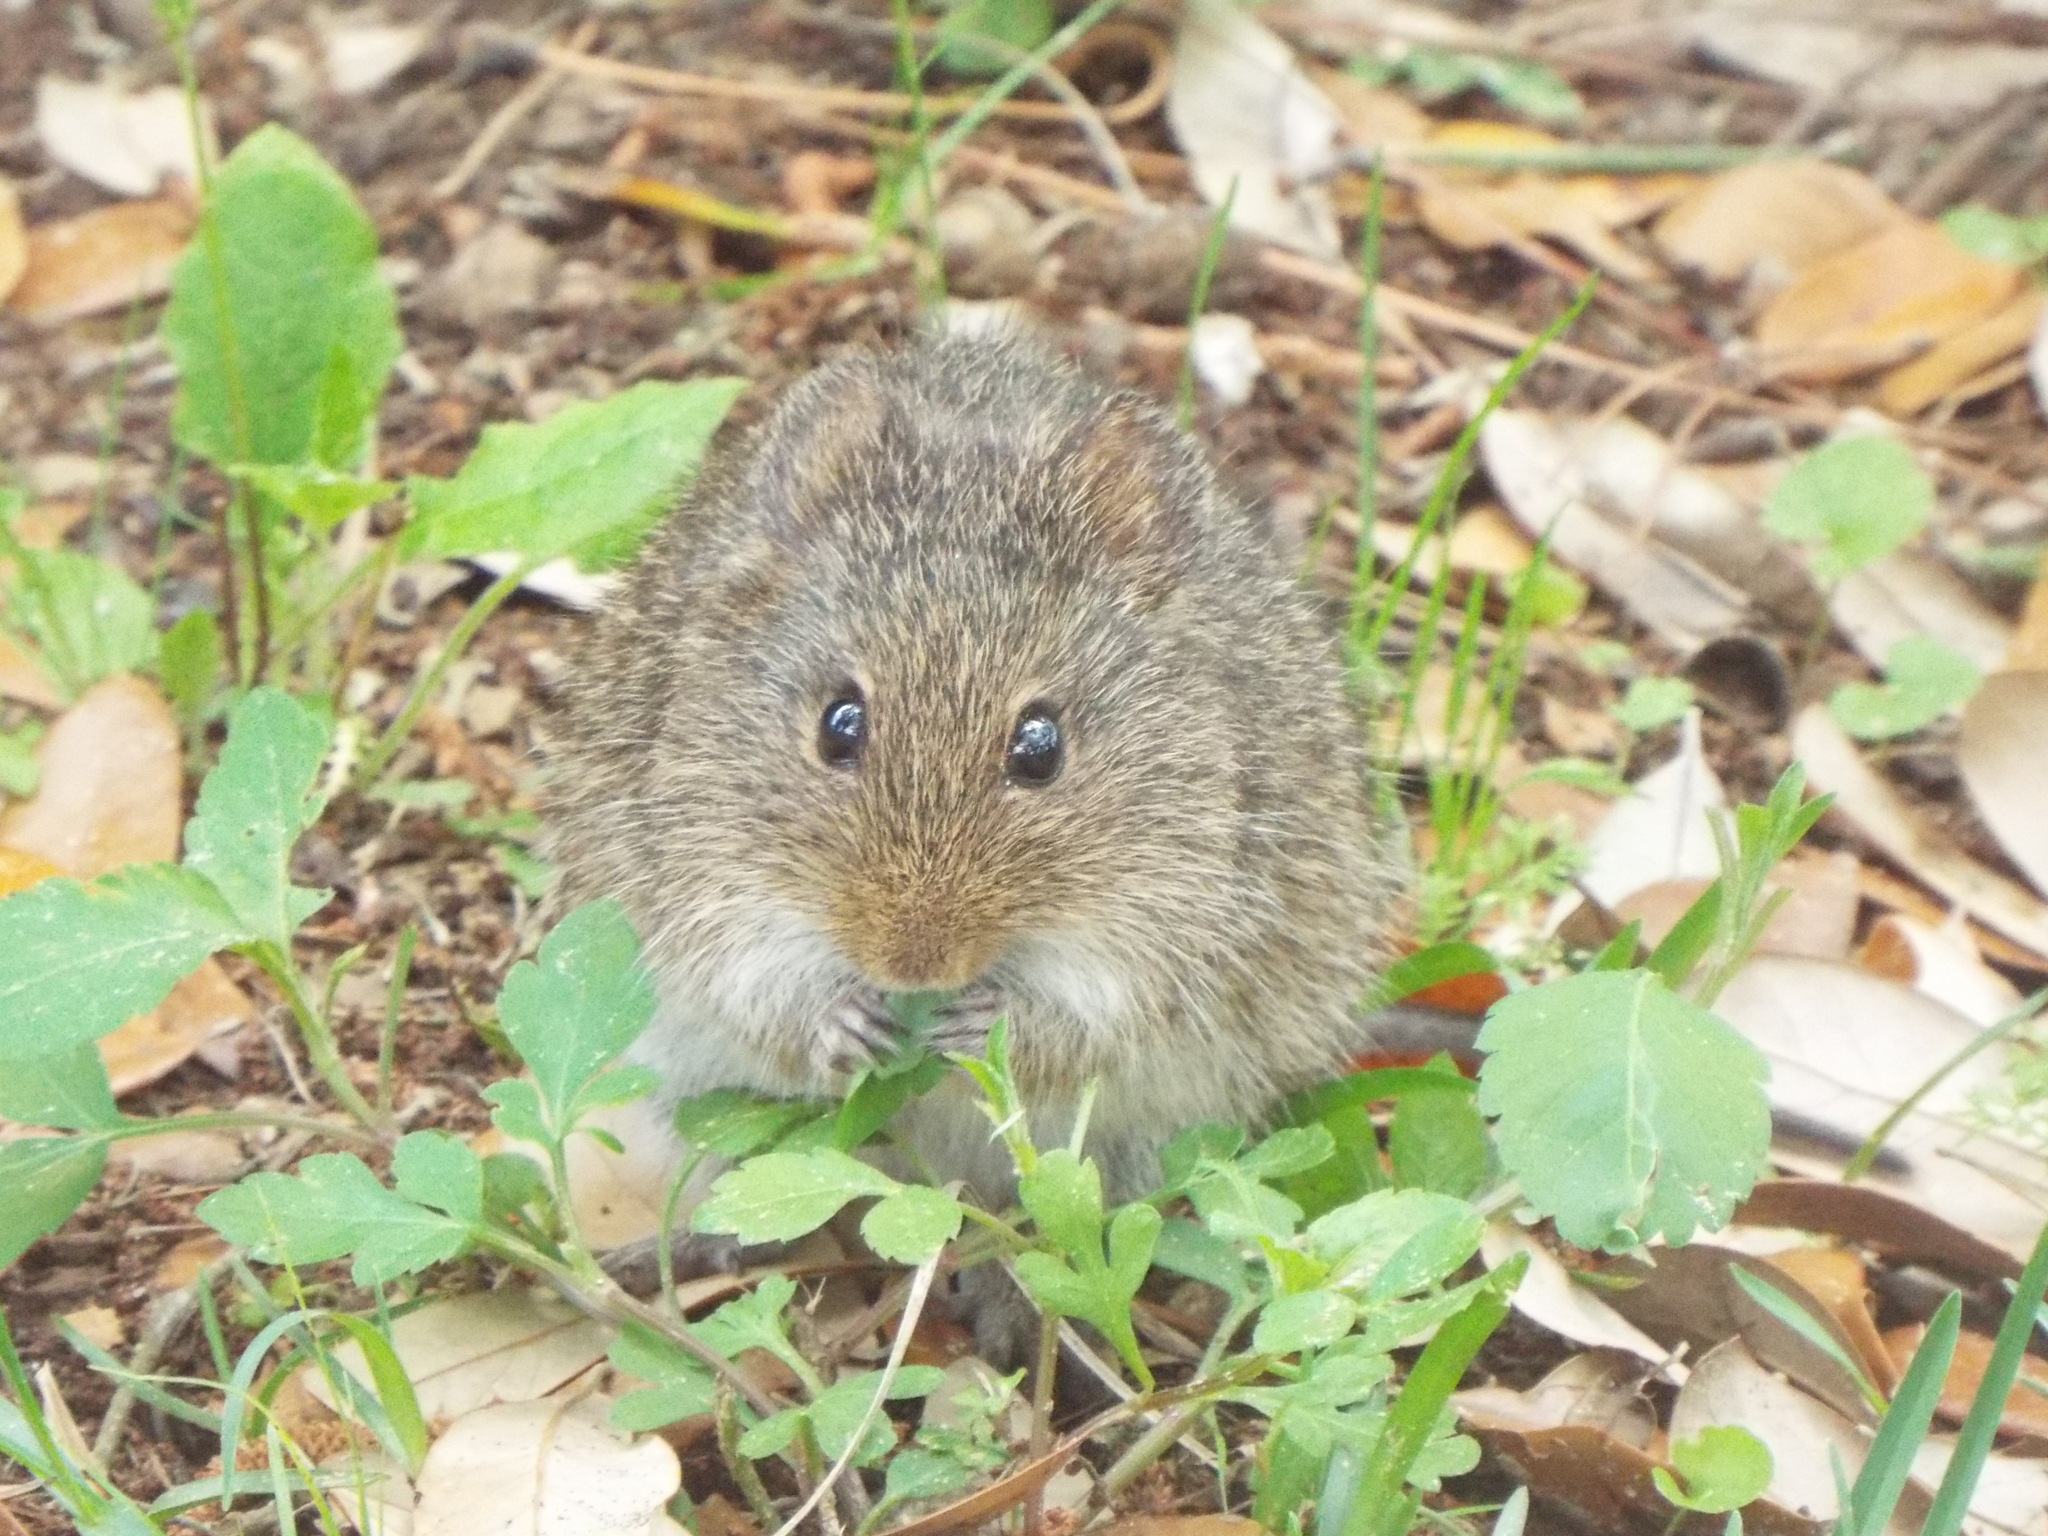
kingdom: Animalia
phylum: Chordata
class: Mammalia
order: Rodentia
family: Cricetidae
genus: Sigmodon
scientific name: Sigmodon hispidus
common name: Hispid cotton rat
